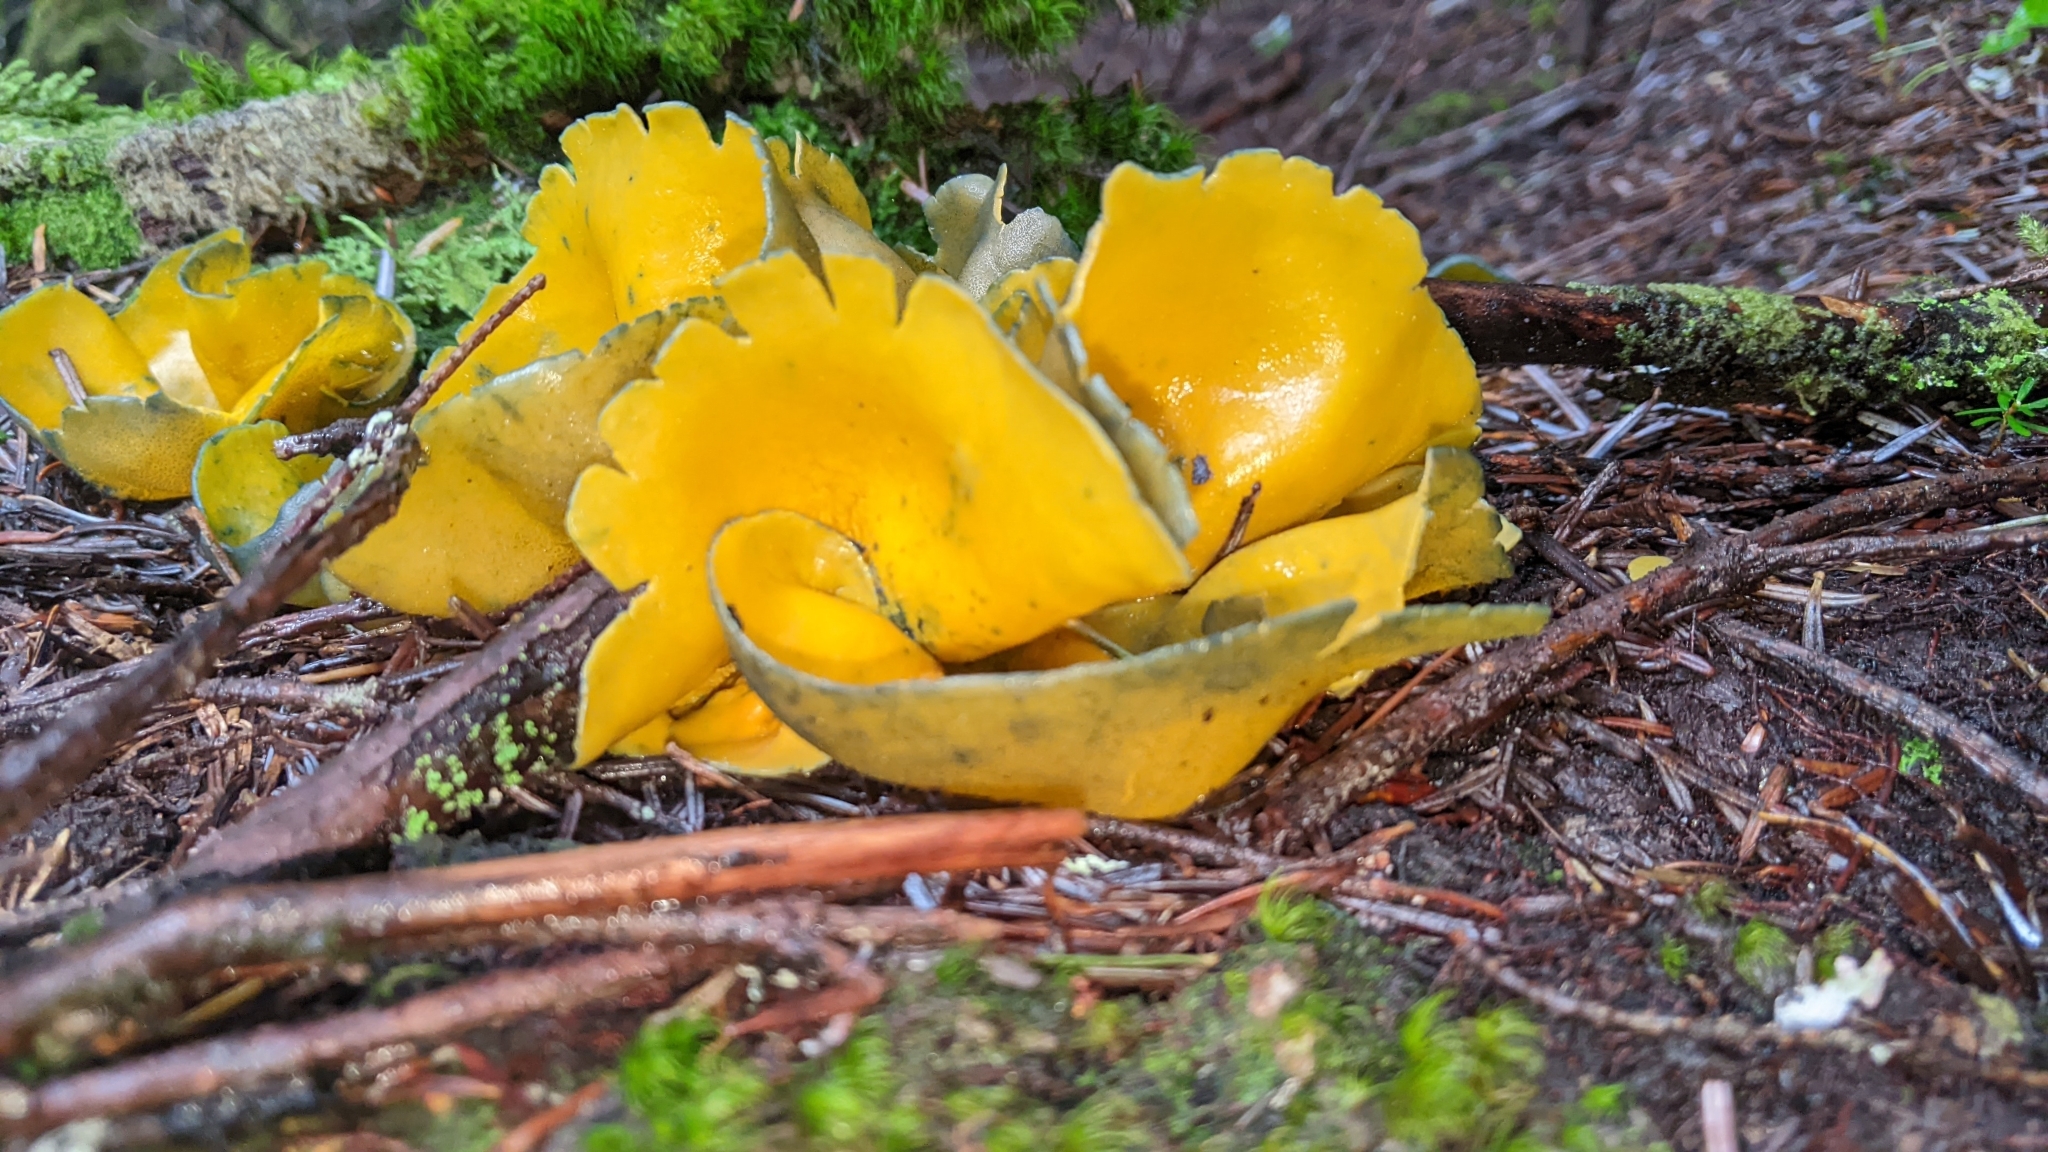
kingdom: Fungi
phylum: Ascomycota
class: Pezizomycetes
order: Pezizales
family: Caloscyphaceae
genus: Caloscypha
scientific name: Caloscypha fulgens
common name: Golden cup
